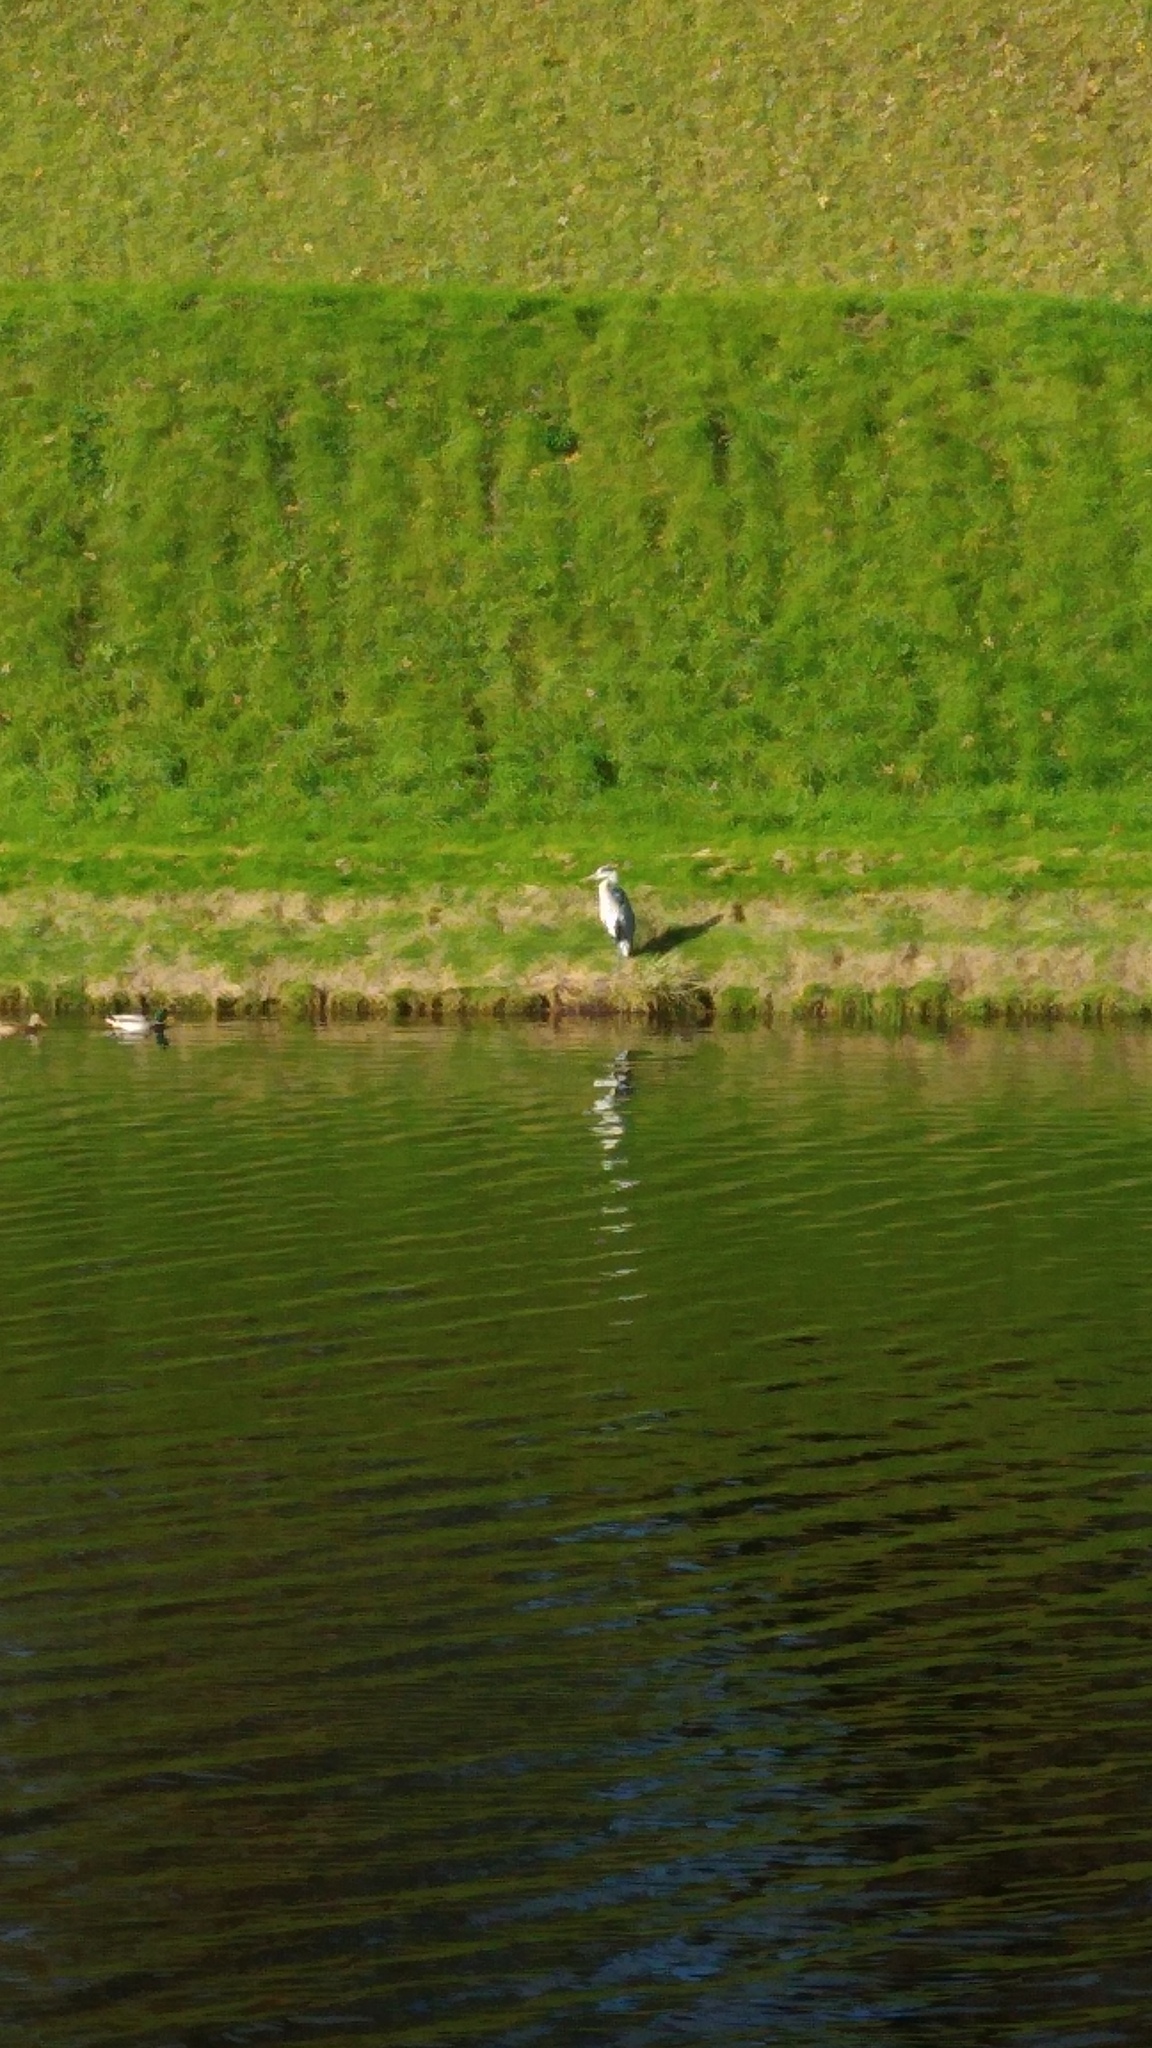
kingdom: Animalia
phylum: Chordata
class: Aves
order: Pelecaniformes
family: Ardeidae
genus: Ardea
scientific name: Ardea cinerea
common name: Grey heron
